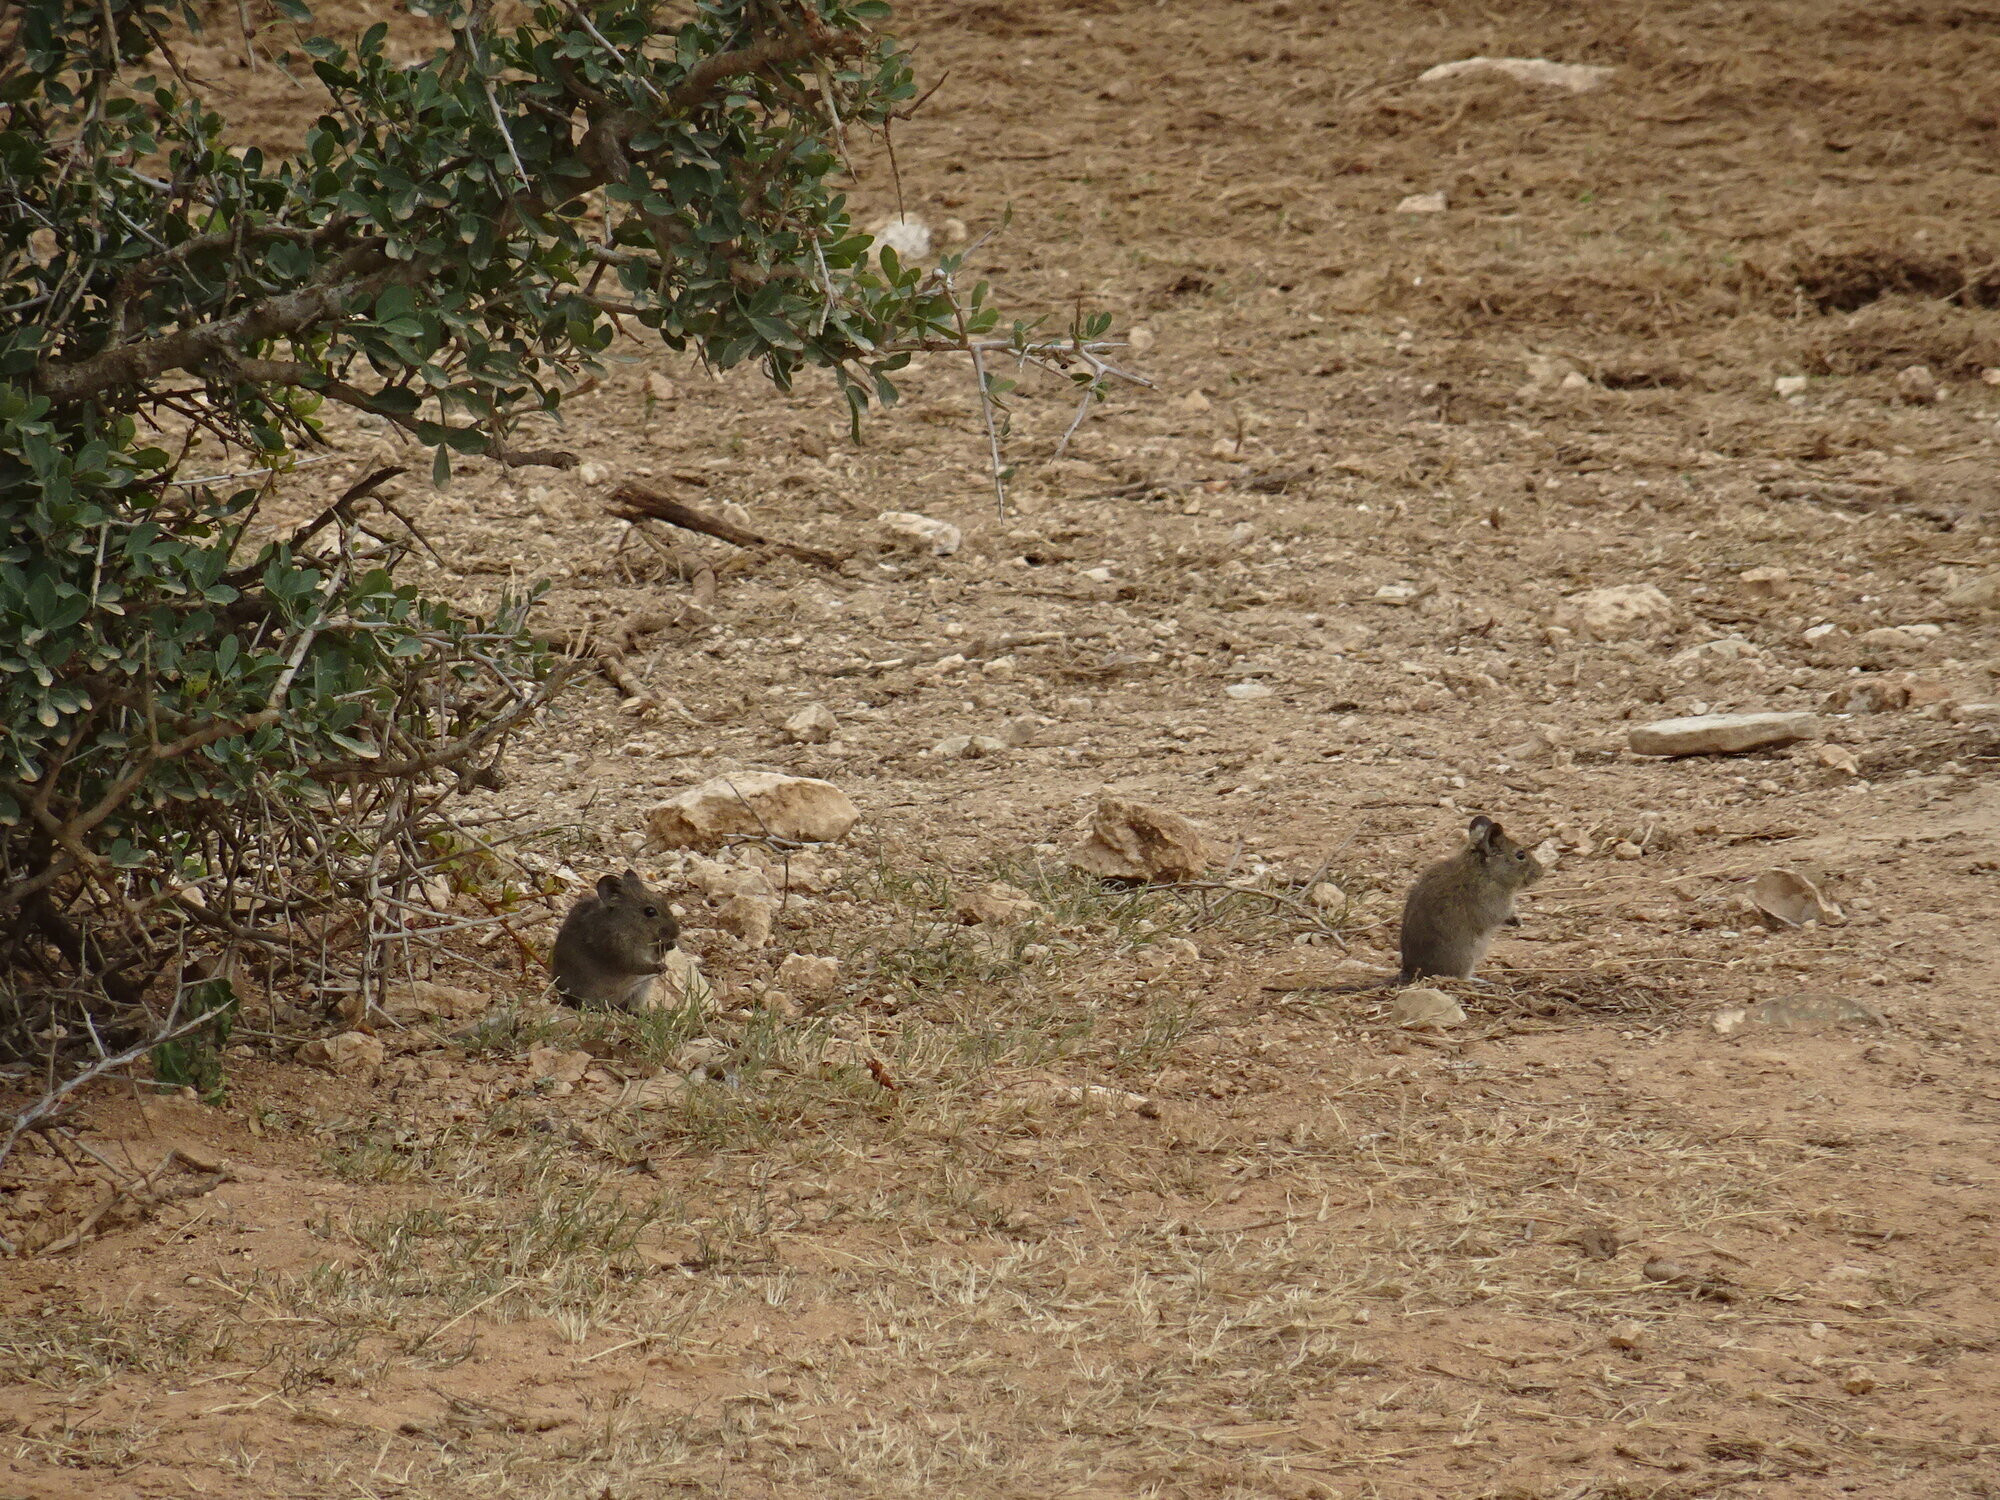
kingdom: Animalia
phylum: Chordata
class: Mammalia
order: Rodentia
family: Muridae
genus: Myotomys
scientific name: Myotomys unisulcatus
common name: Bush karroo rat
